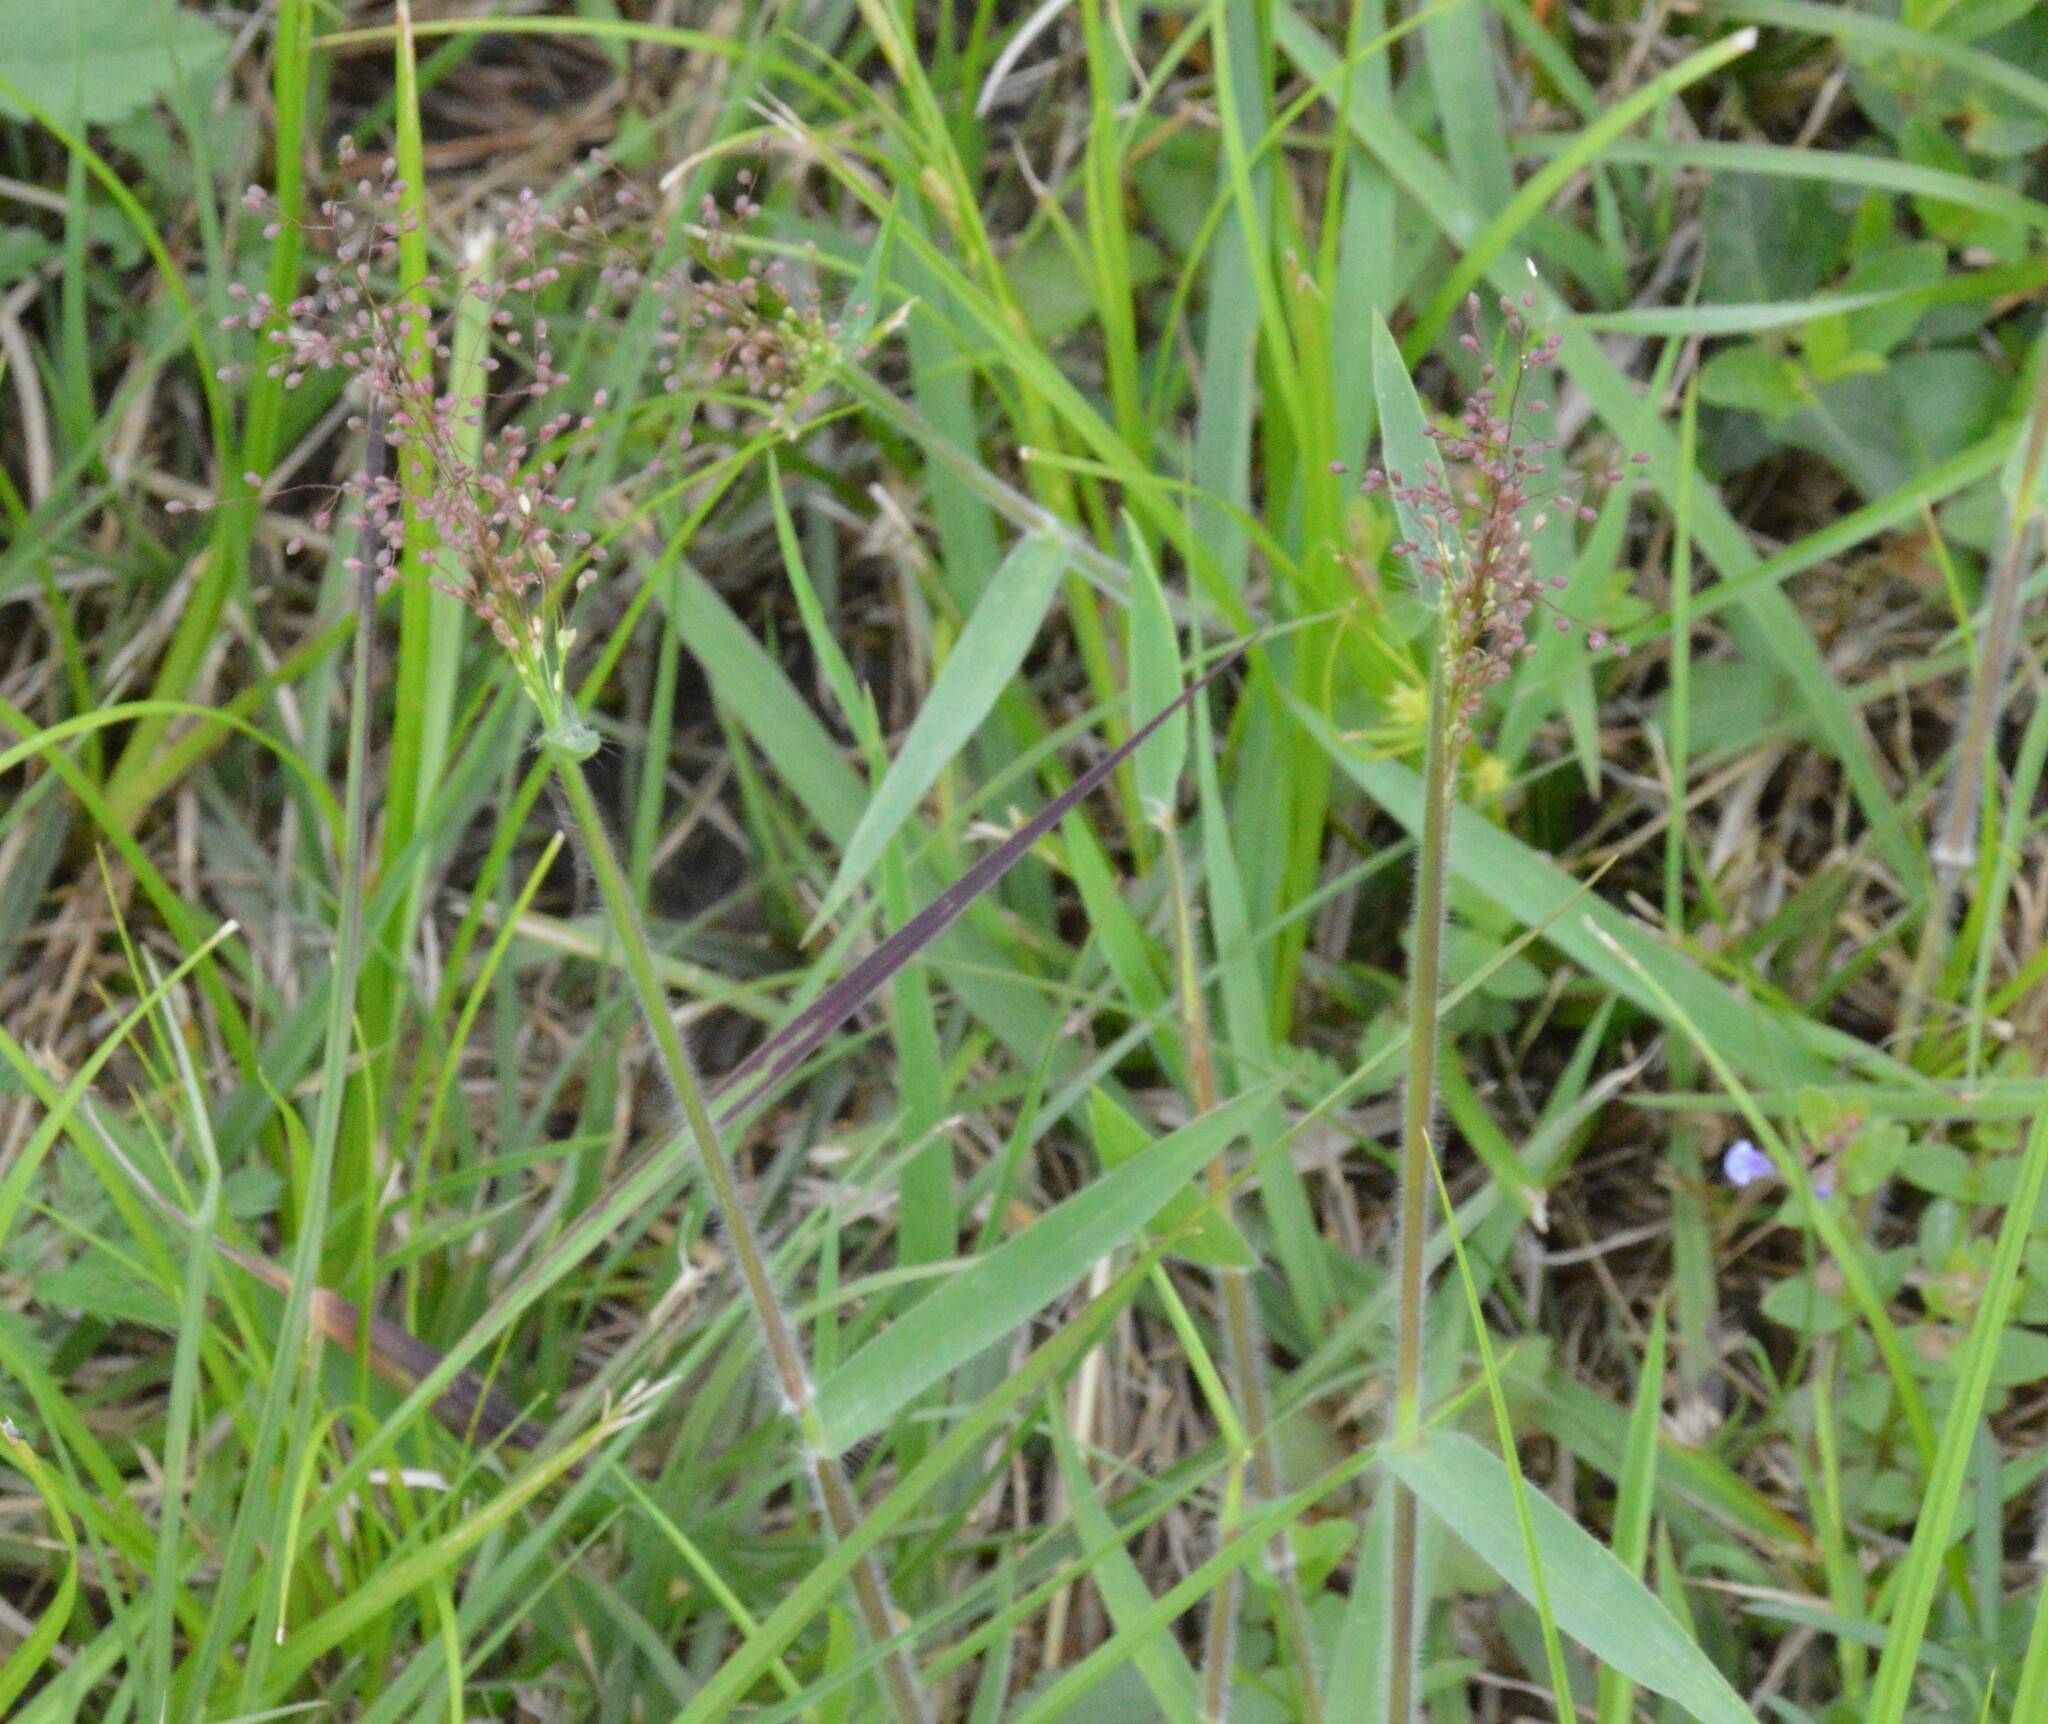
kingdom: Plantae
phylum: Tracheophyta
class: Liliopsida
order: Poales
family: Poaceae
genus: Dichanthelium
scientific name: Dichanthelium acuminatum
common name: Hairy panic grass
